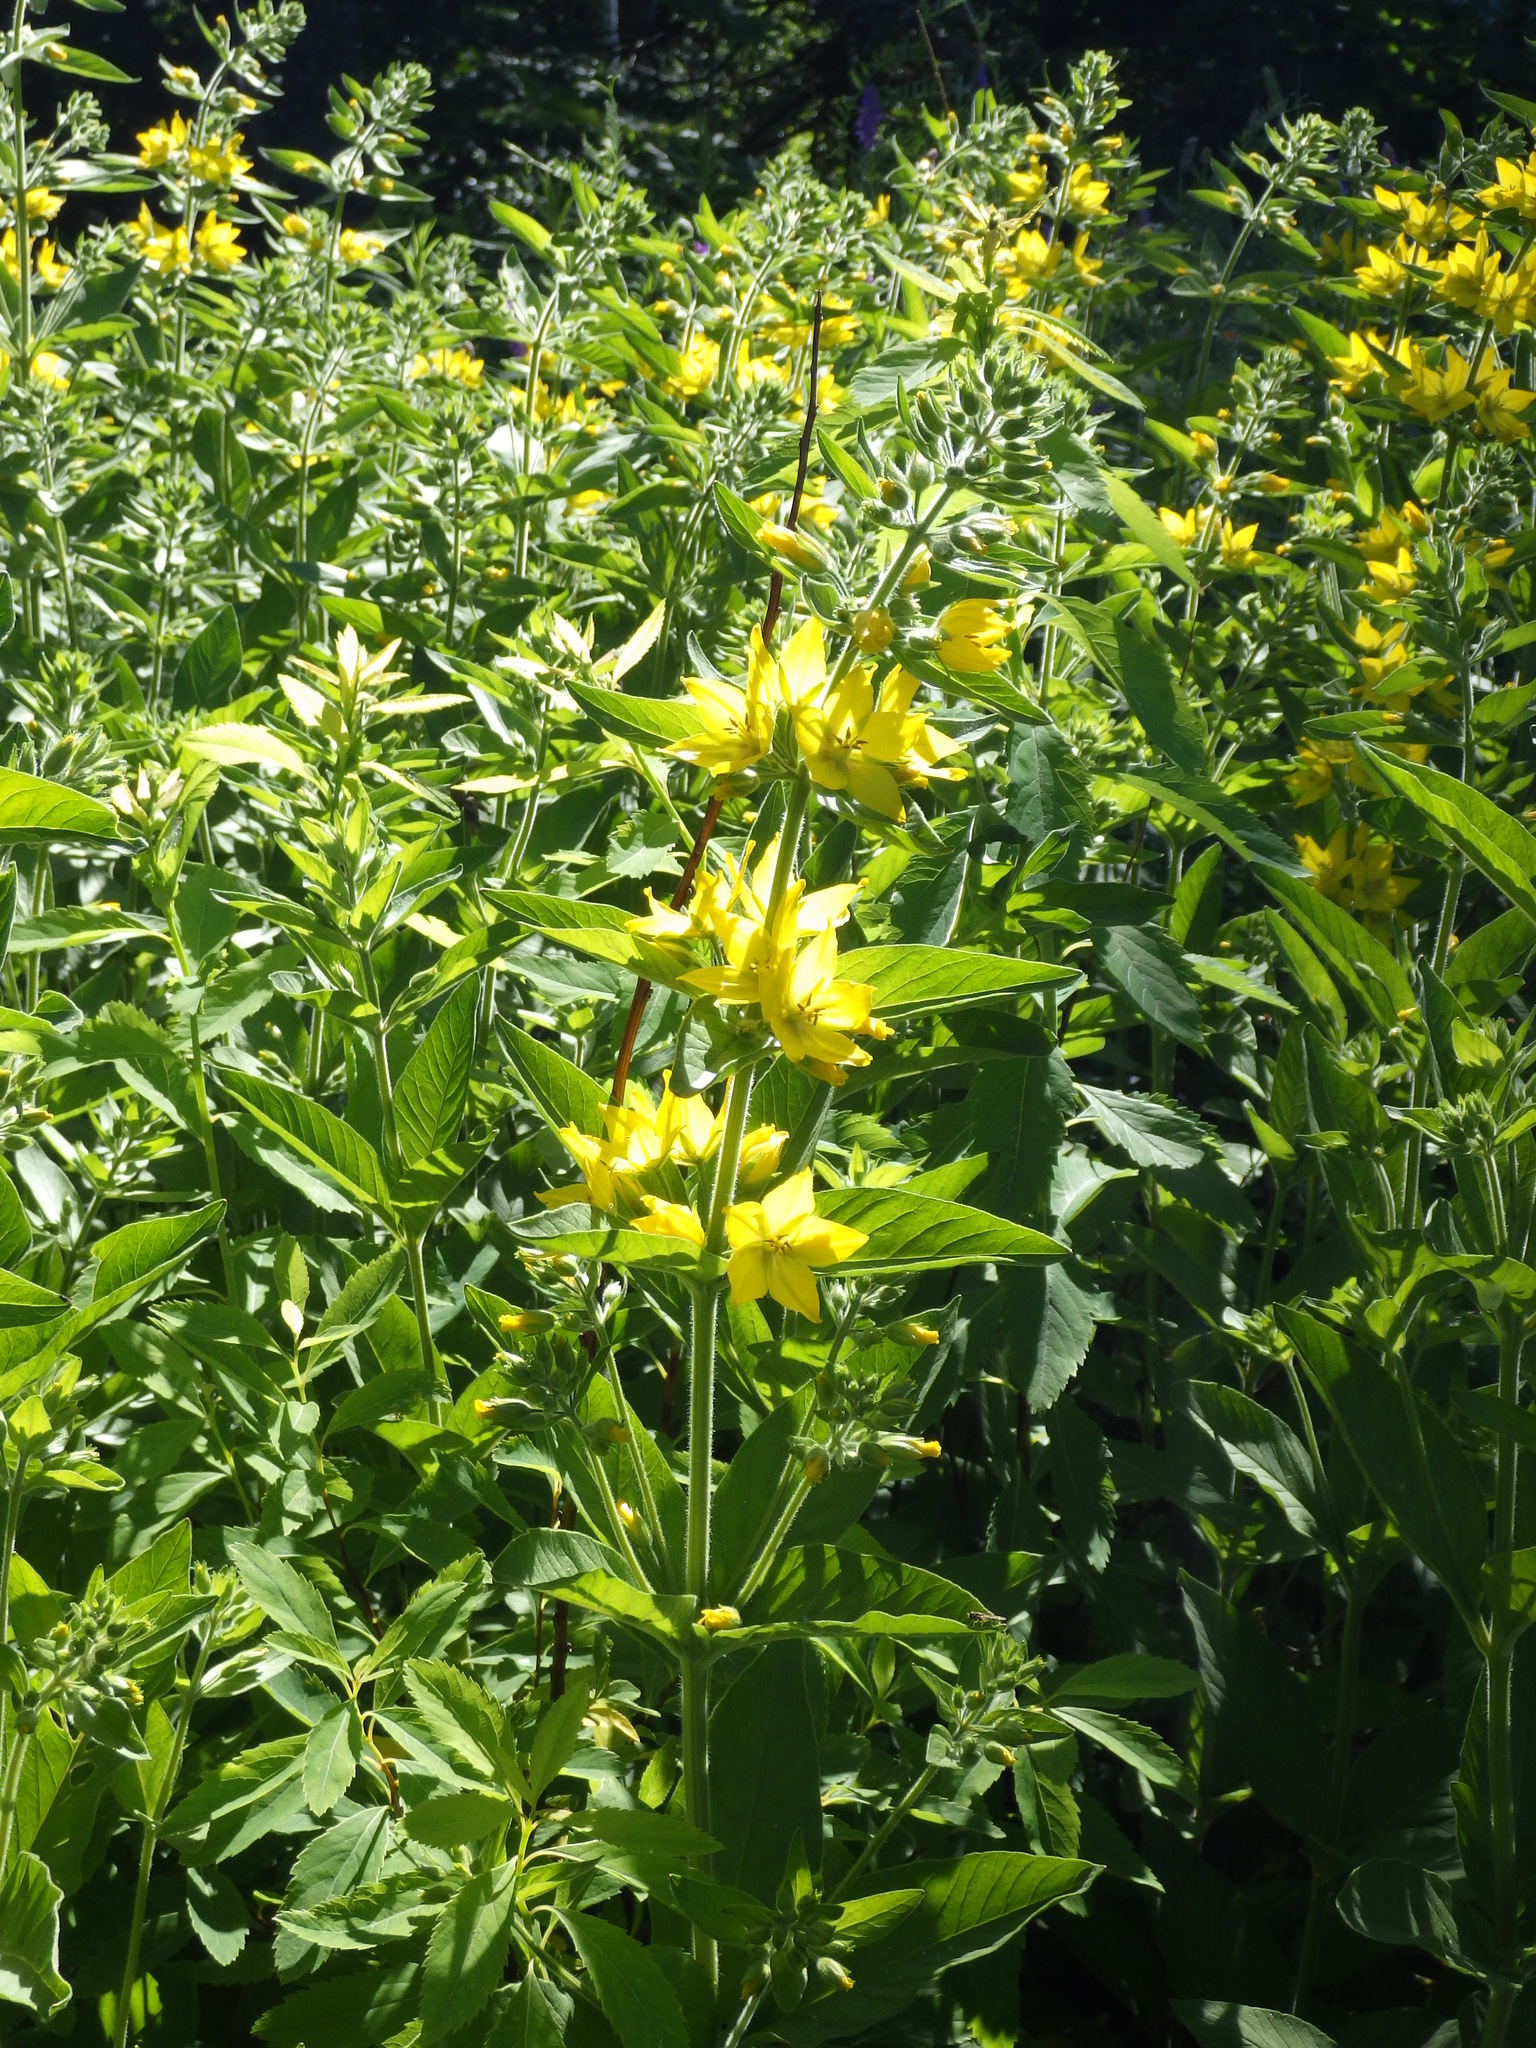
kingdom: Plantae
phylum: Tracheophyta
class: Magnoliopsida
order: Ericales
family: Primulaceae
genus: Lysimachia
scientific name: Lysimachia punctata
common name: Dotted loosestrife
